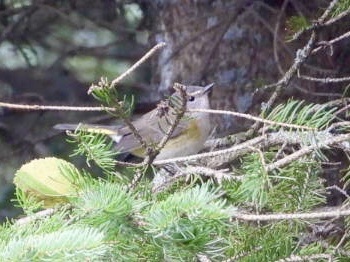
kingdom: Animalia
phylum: Chordata
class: Aves
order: Passeriformes
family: Parulidae
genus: Setophaga
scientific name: Setophaga ruticilla
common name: American redstart
